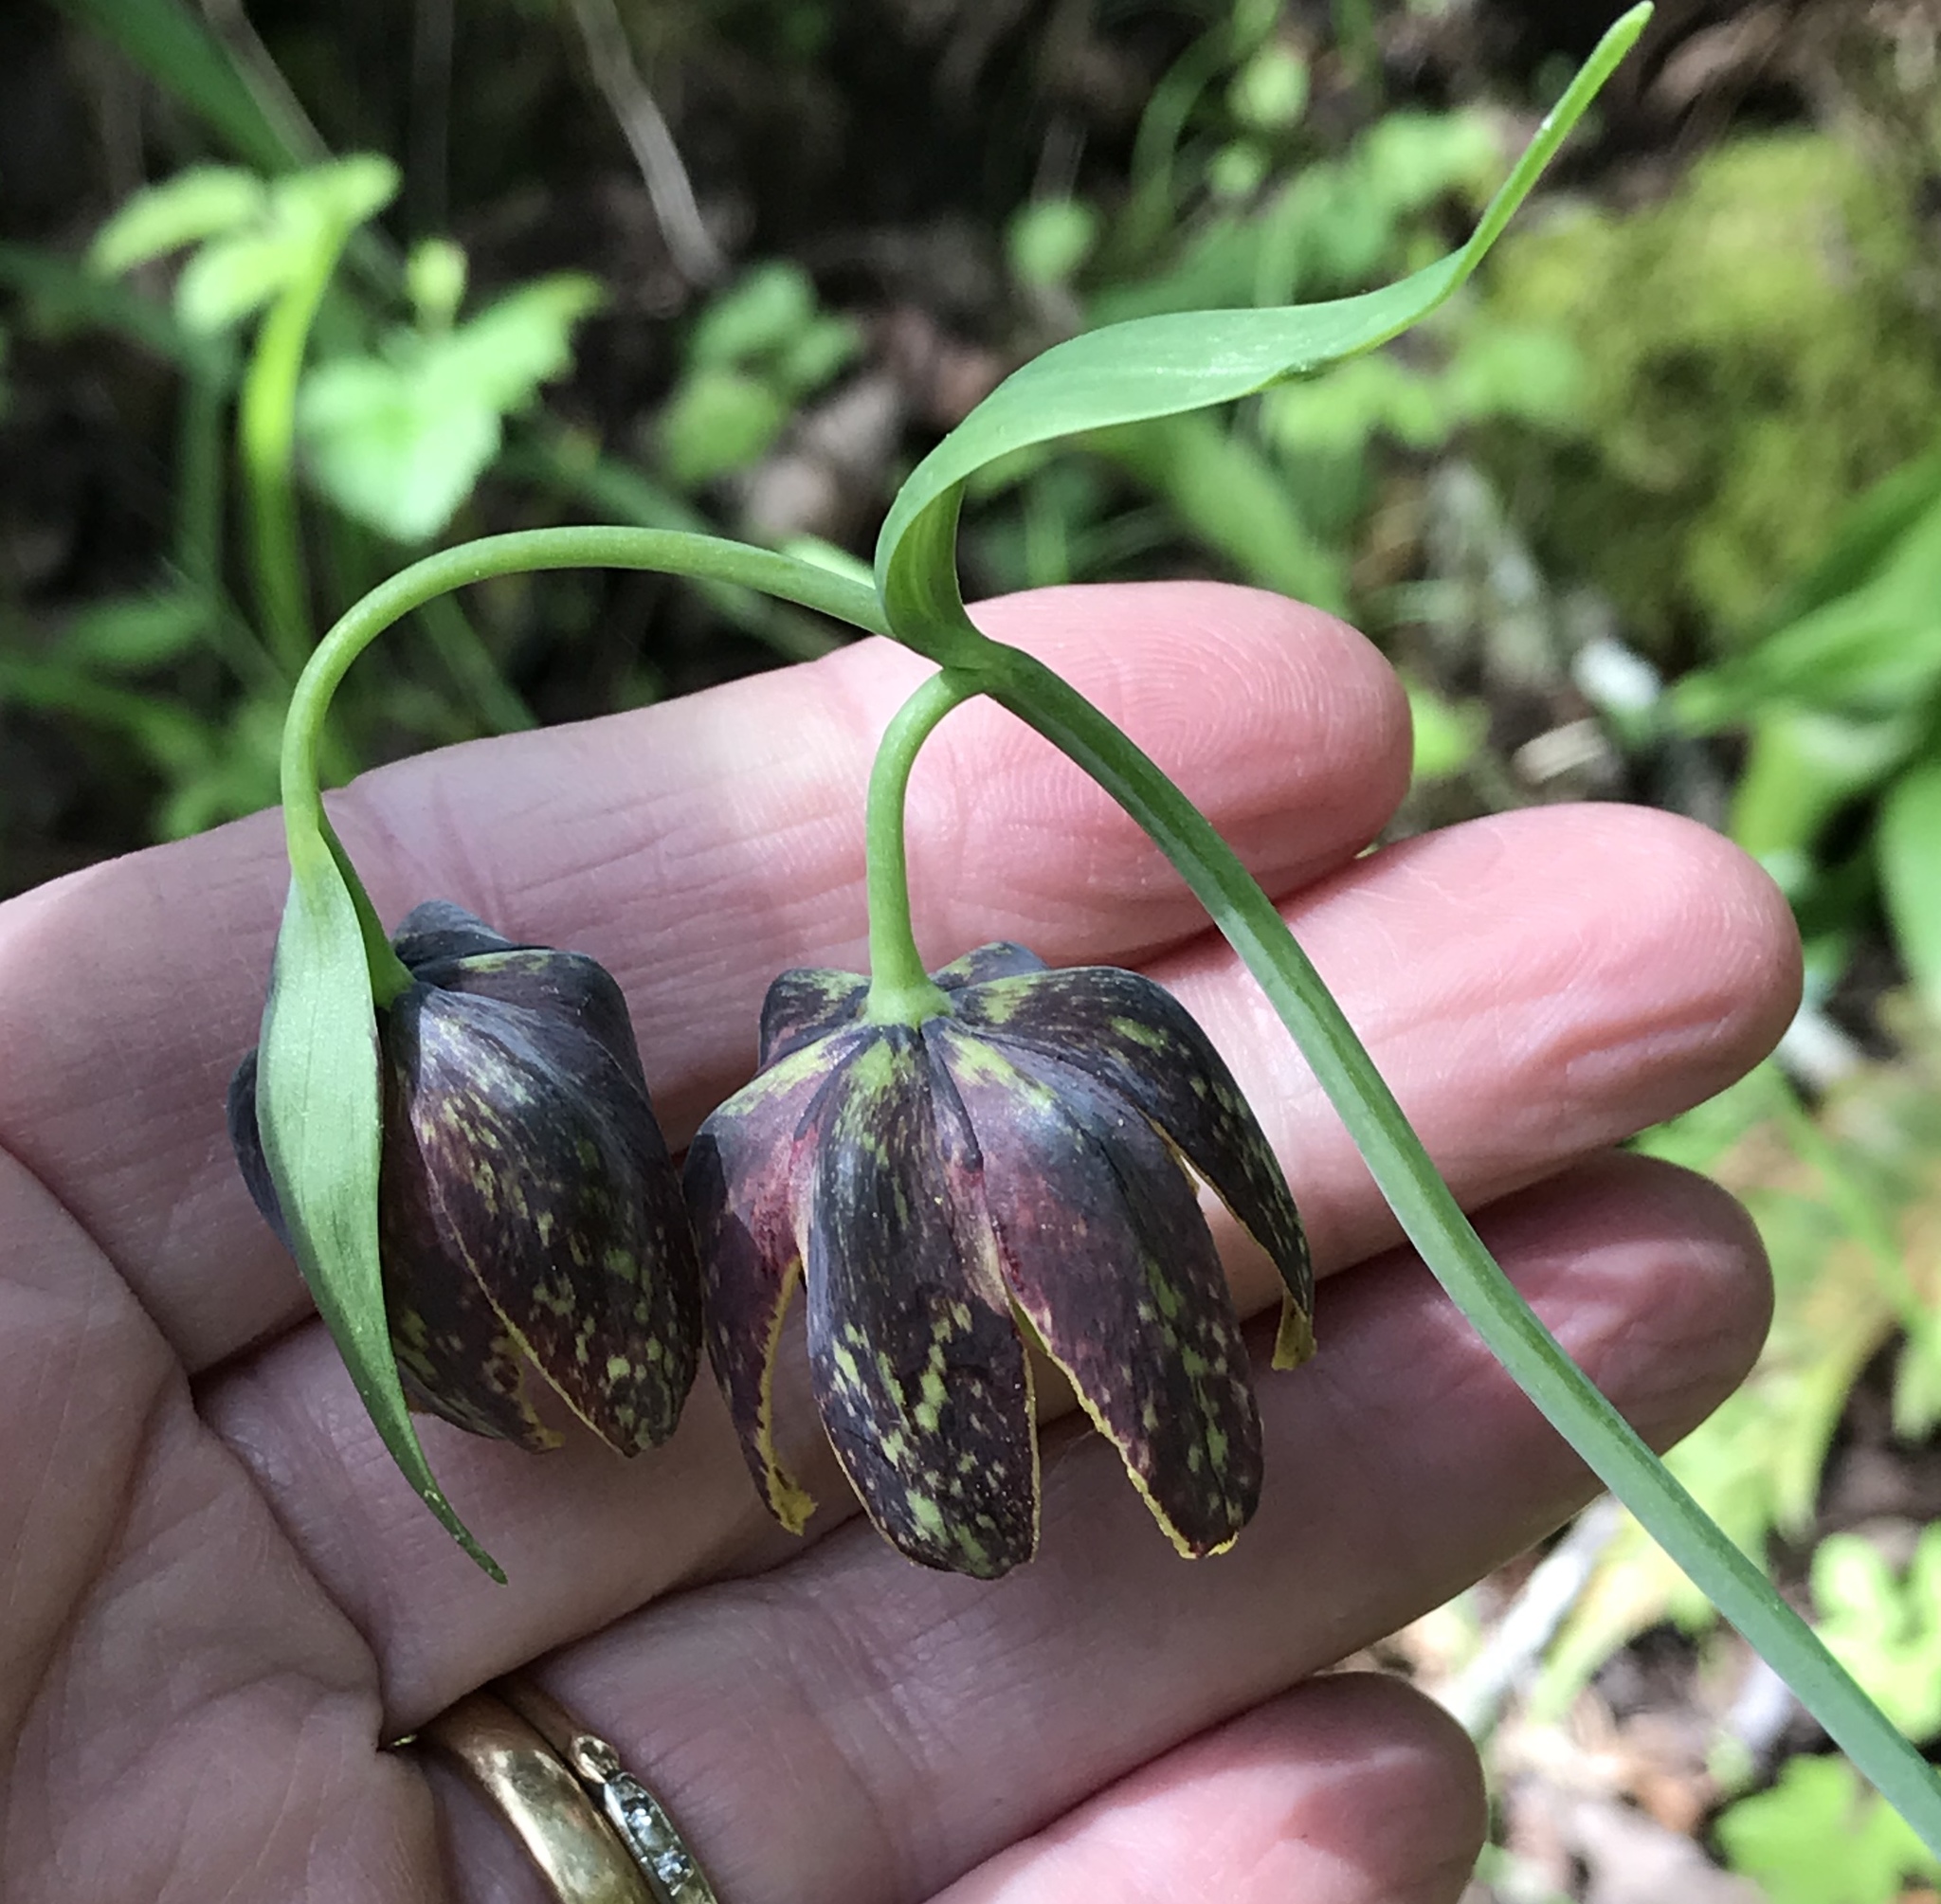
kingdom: Plantae
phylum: Tracheophyta
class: Liliopsida
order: Liliales
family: Liliaceae
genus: Fritillaria
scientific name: Fritillaria affinis
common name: Ojai fritillary
